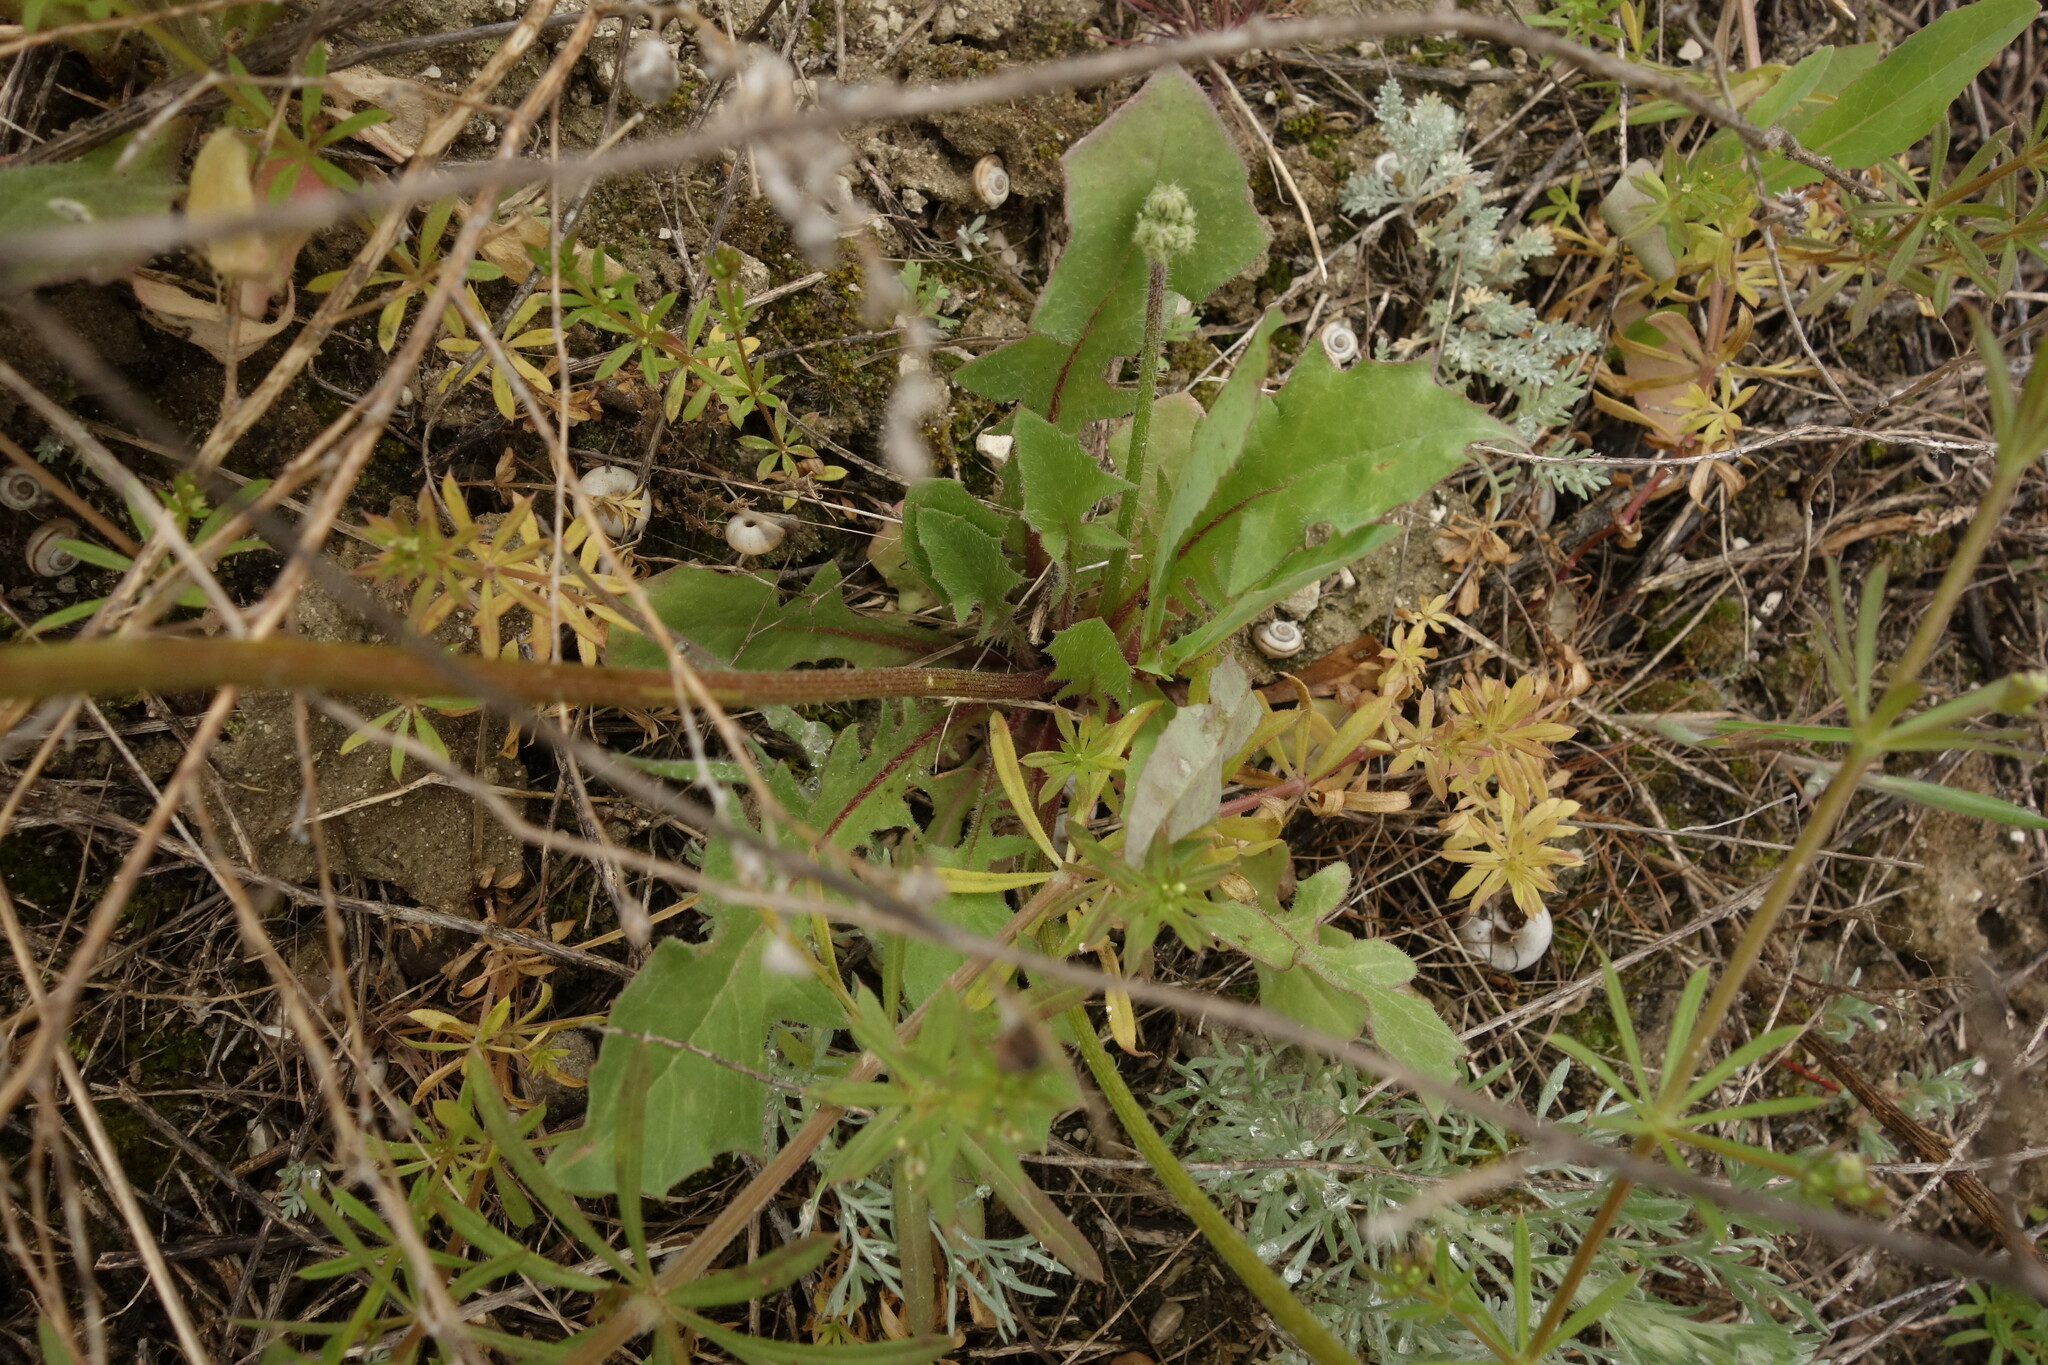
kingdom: Plantae
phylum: Tracheophyta
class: Magnoliopsida
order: Asterales
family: Asteraceae
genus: Crepis
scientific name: Crepis sancta
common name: Hawk's-beard
